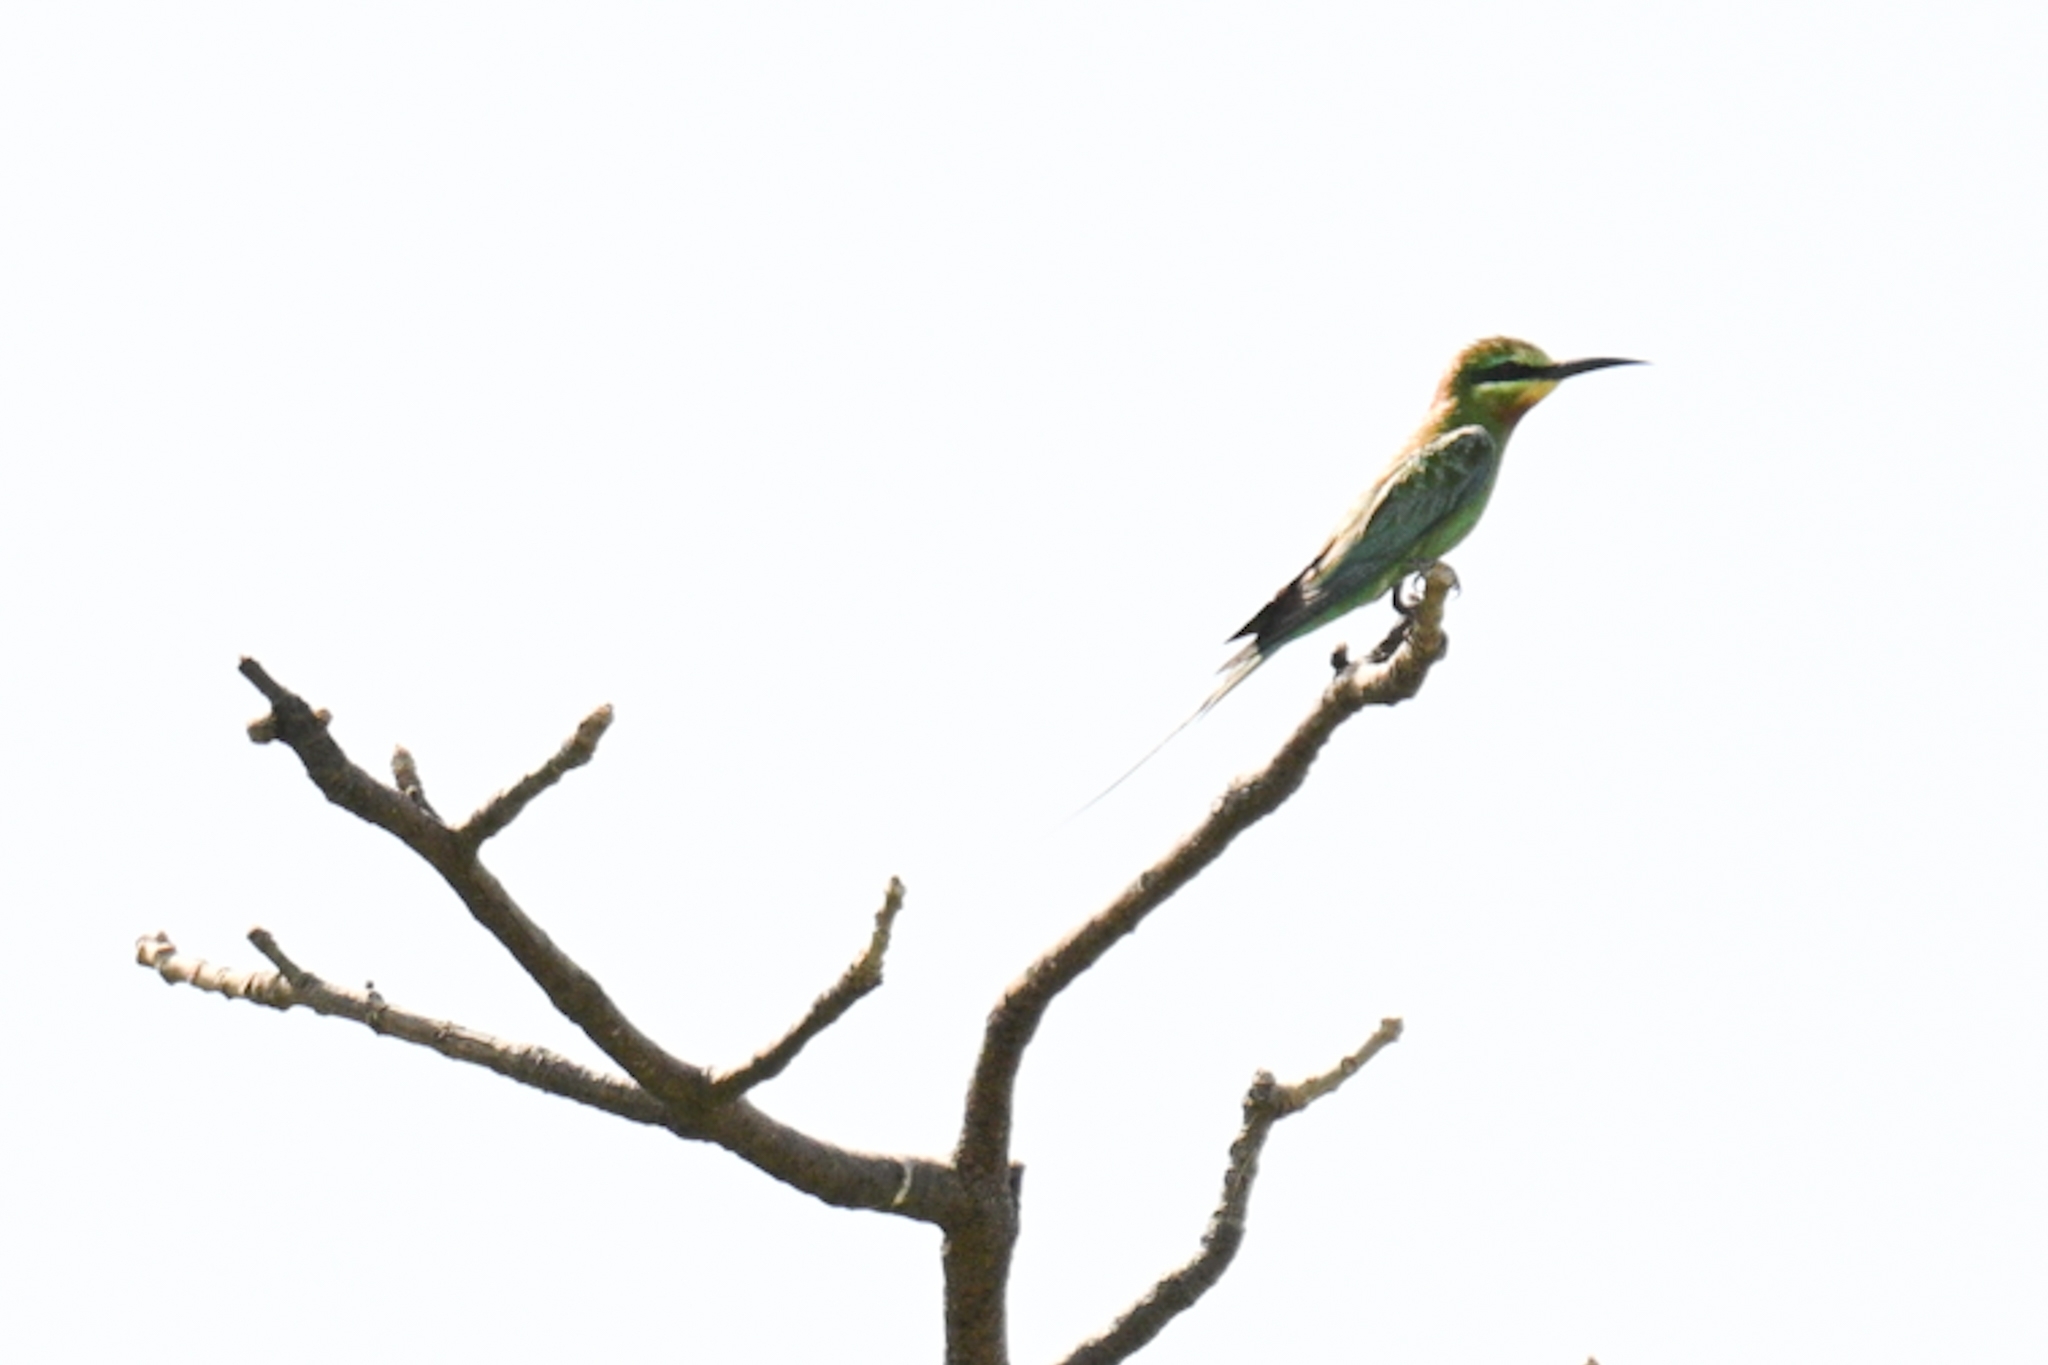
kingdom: Animalia
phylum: Chordata
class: Aves
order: Coraciiformes
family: Meropidae
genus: Merops
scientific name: Merops persicus
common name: Blue-cheeked bee-eater
